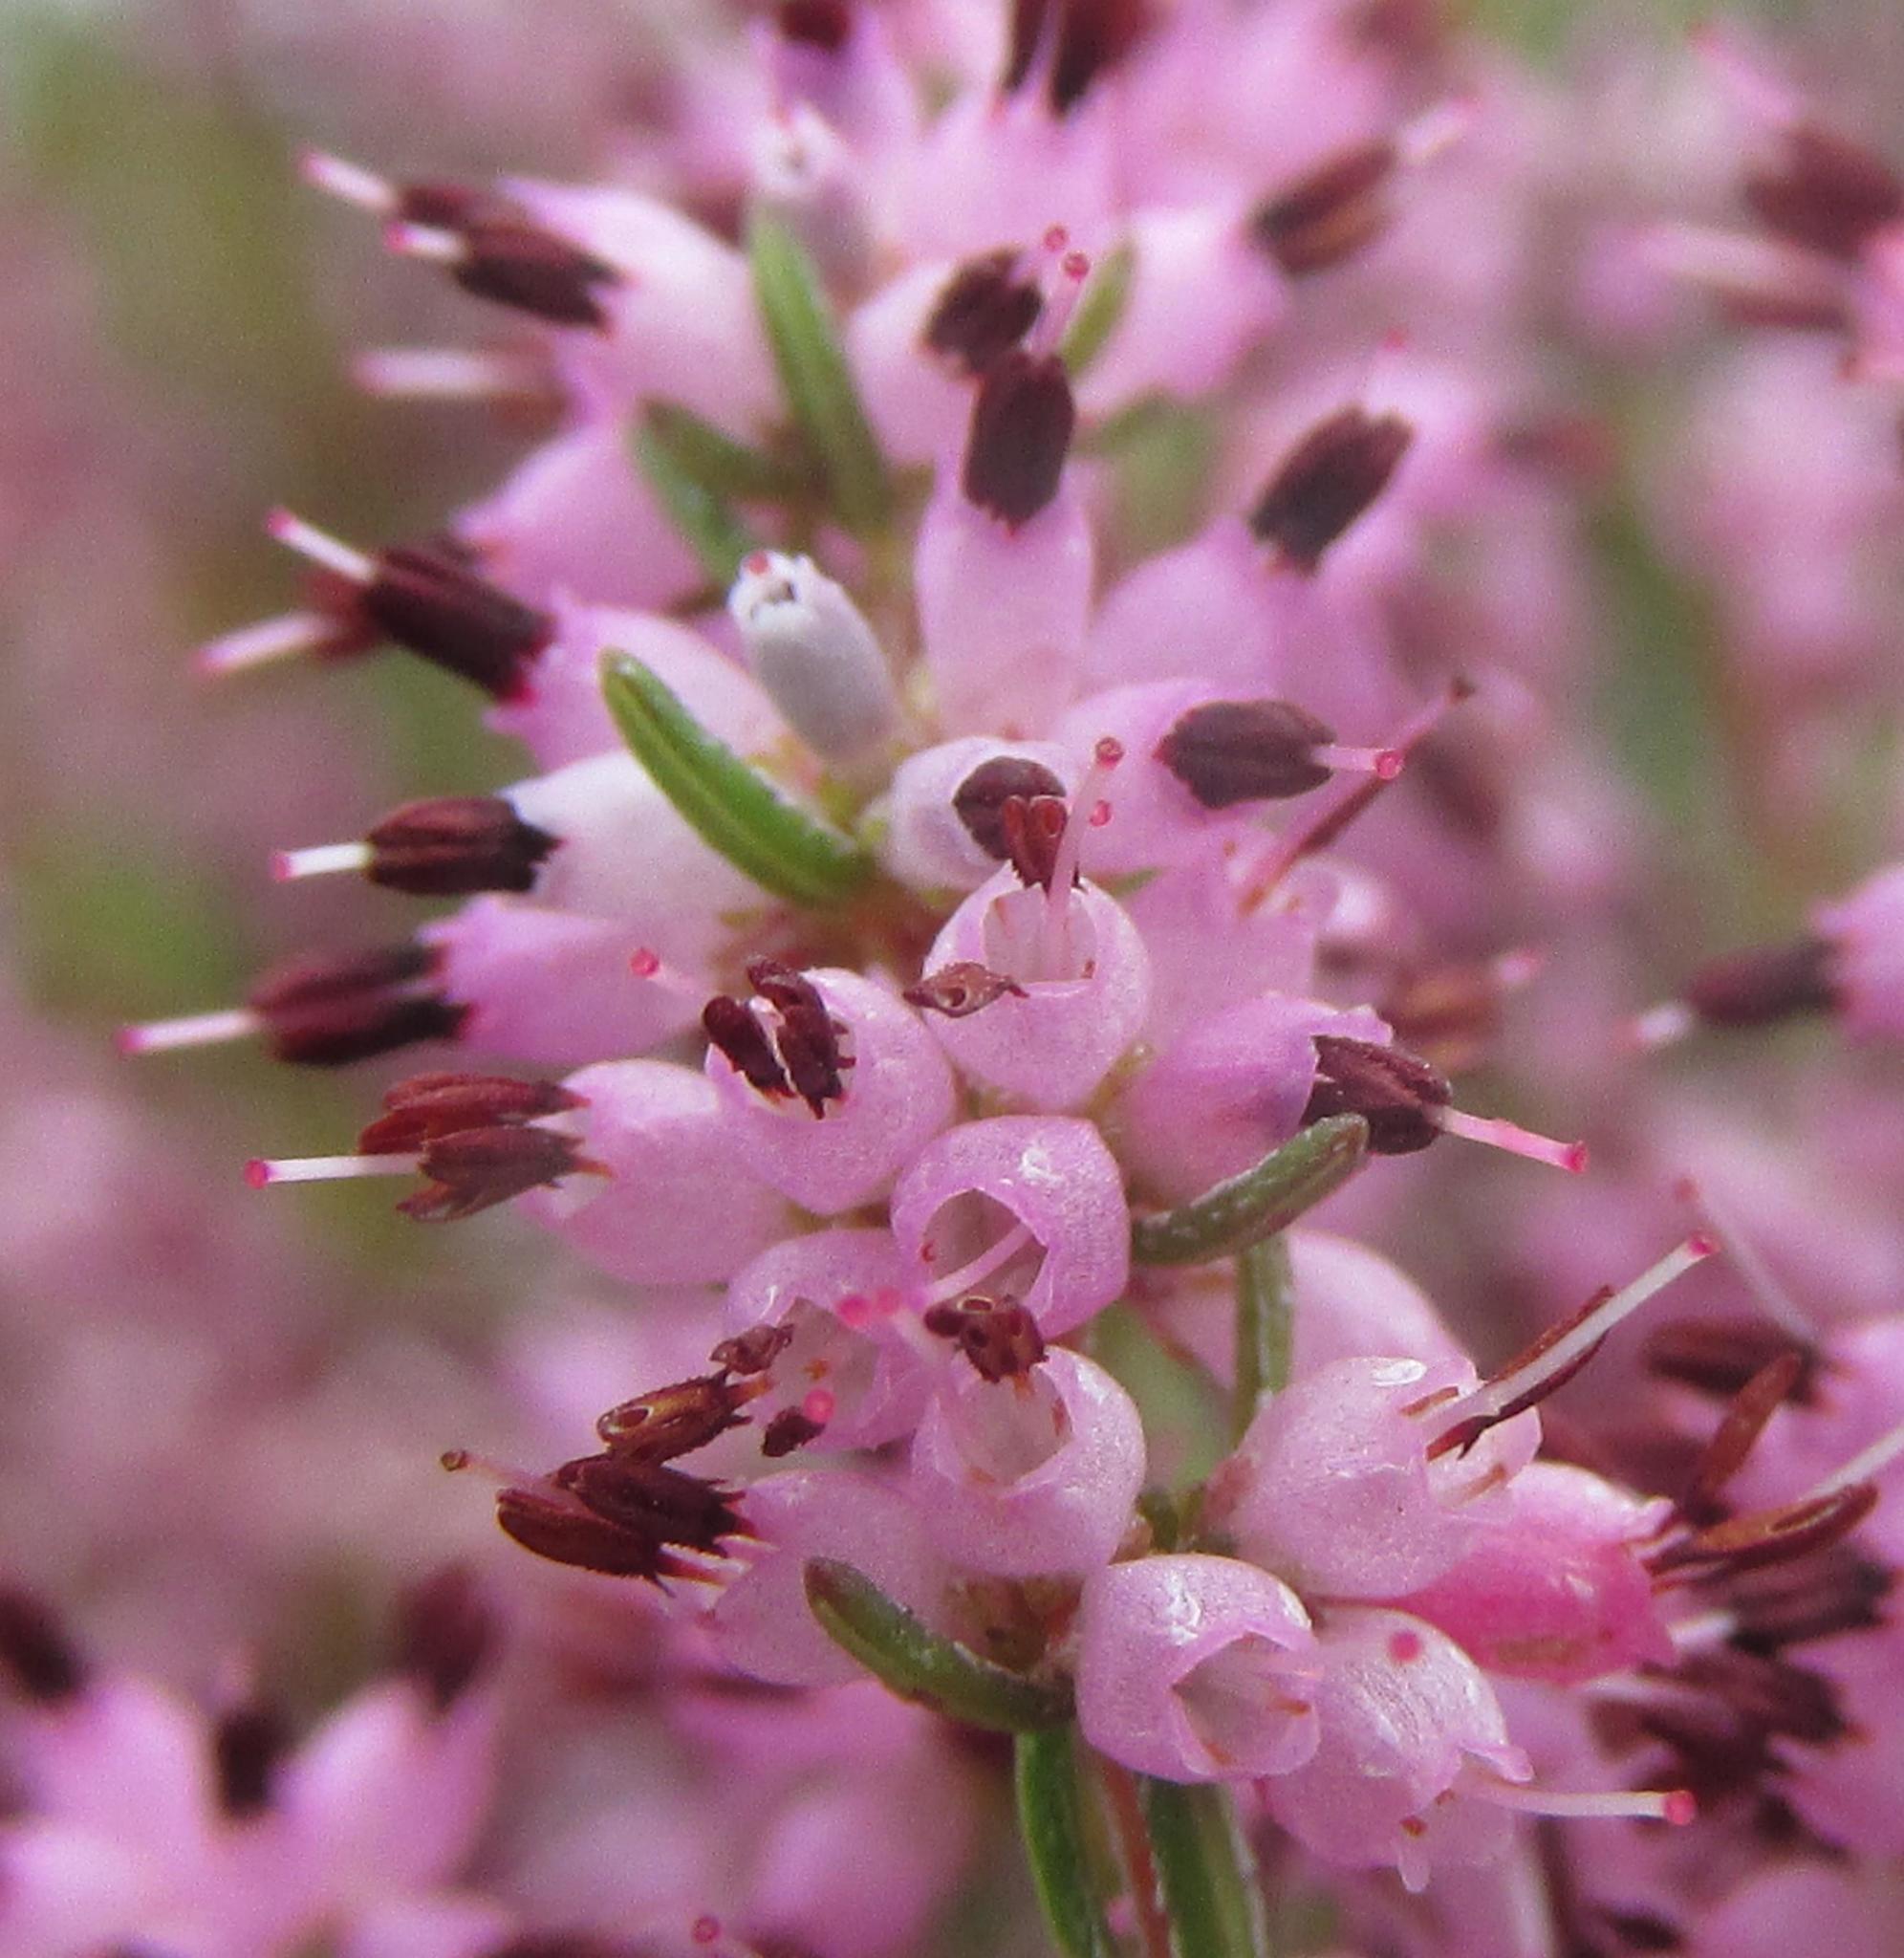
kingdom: Plantae
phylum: Tracheophyta
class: Magnoliopsida
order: Ericales
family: Ericaceae
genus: Erica
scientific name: Erica thamnoides
